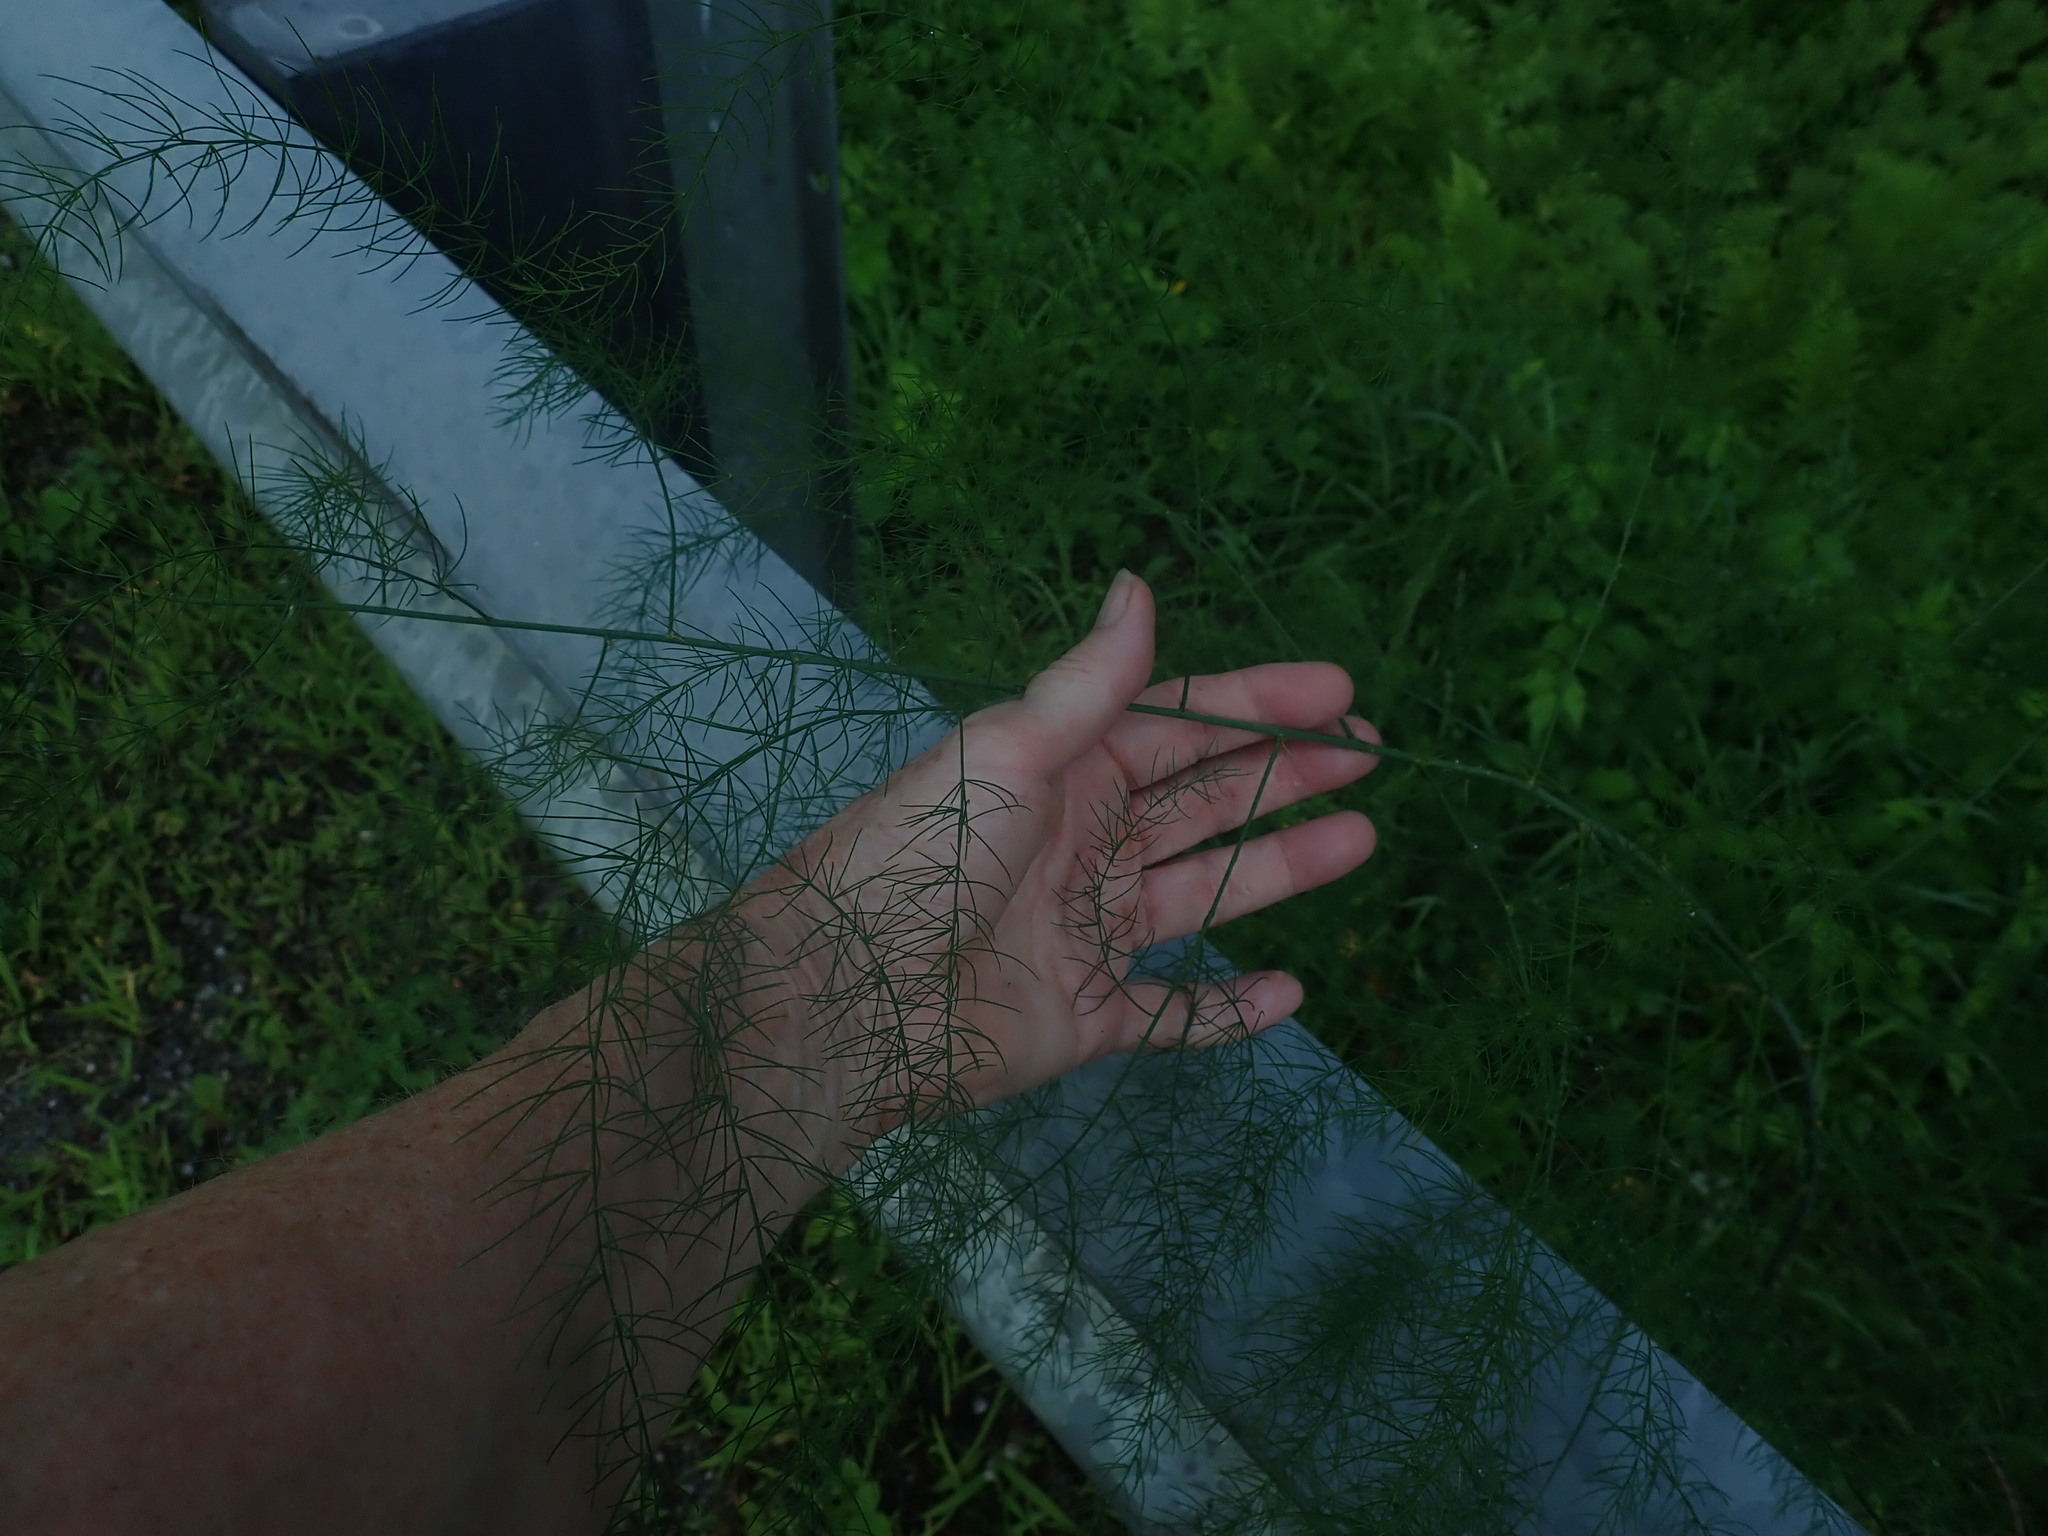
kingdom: Plantae
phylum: Tracheophyta
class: Liliopsida
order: Asparagales
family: Asparagaceae
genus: Asparagus
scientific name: Asparagus officinalis
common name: Garden asparagus
